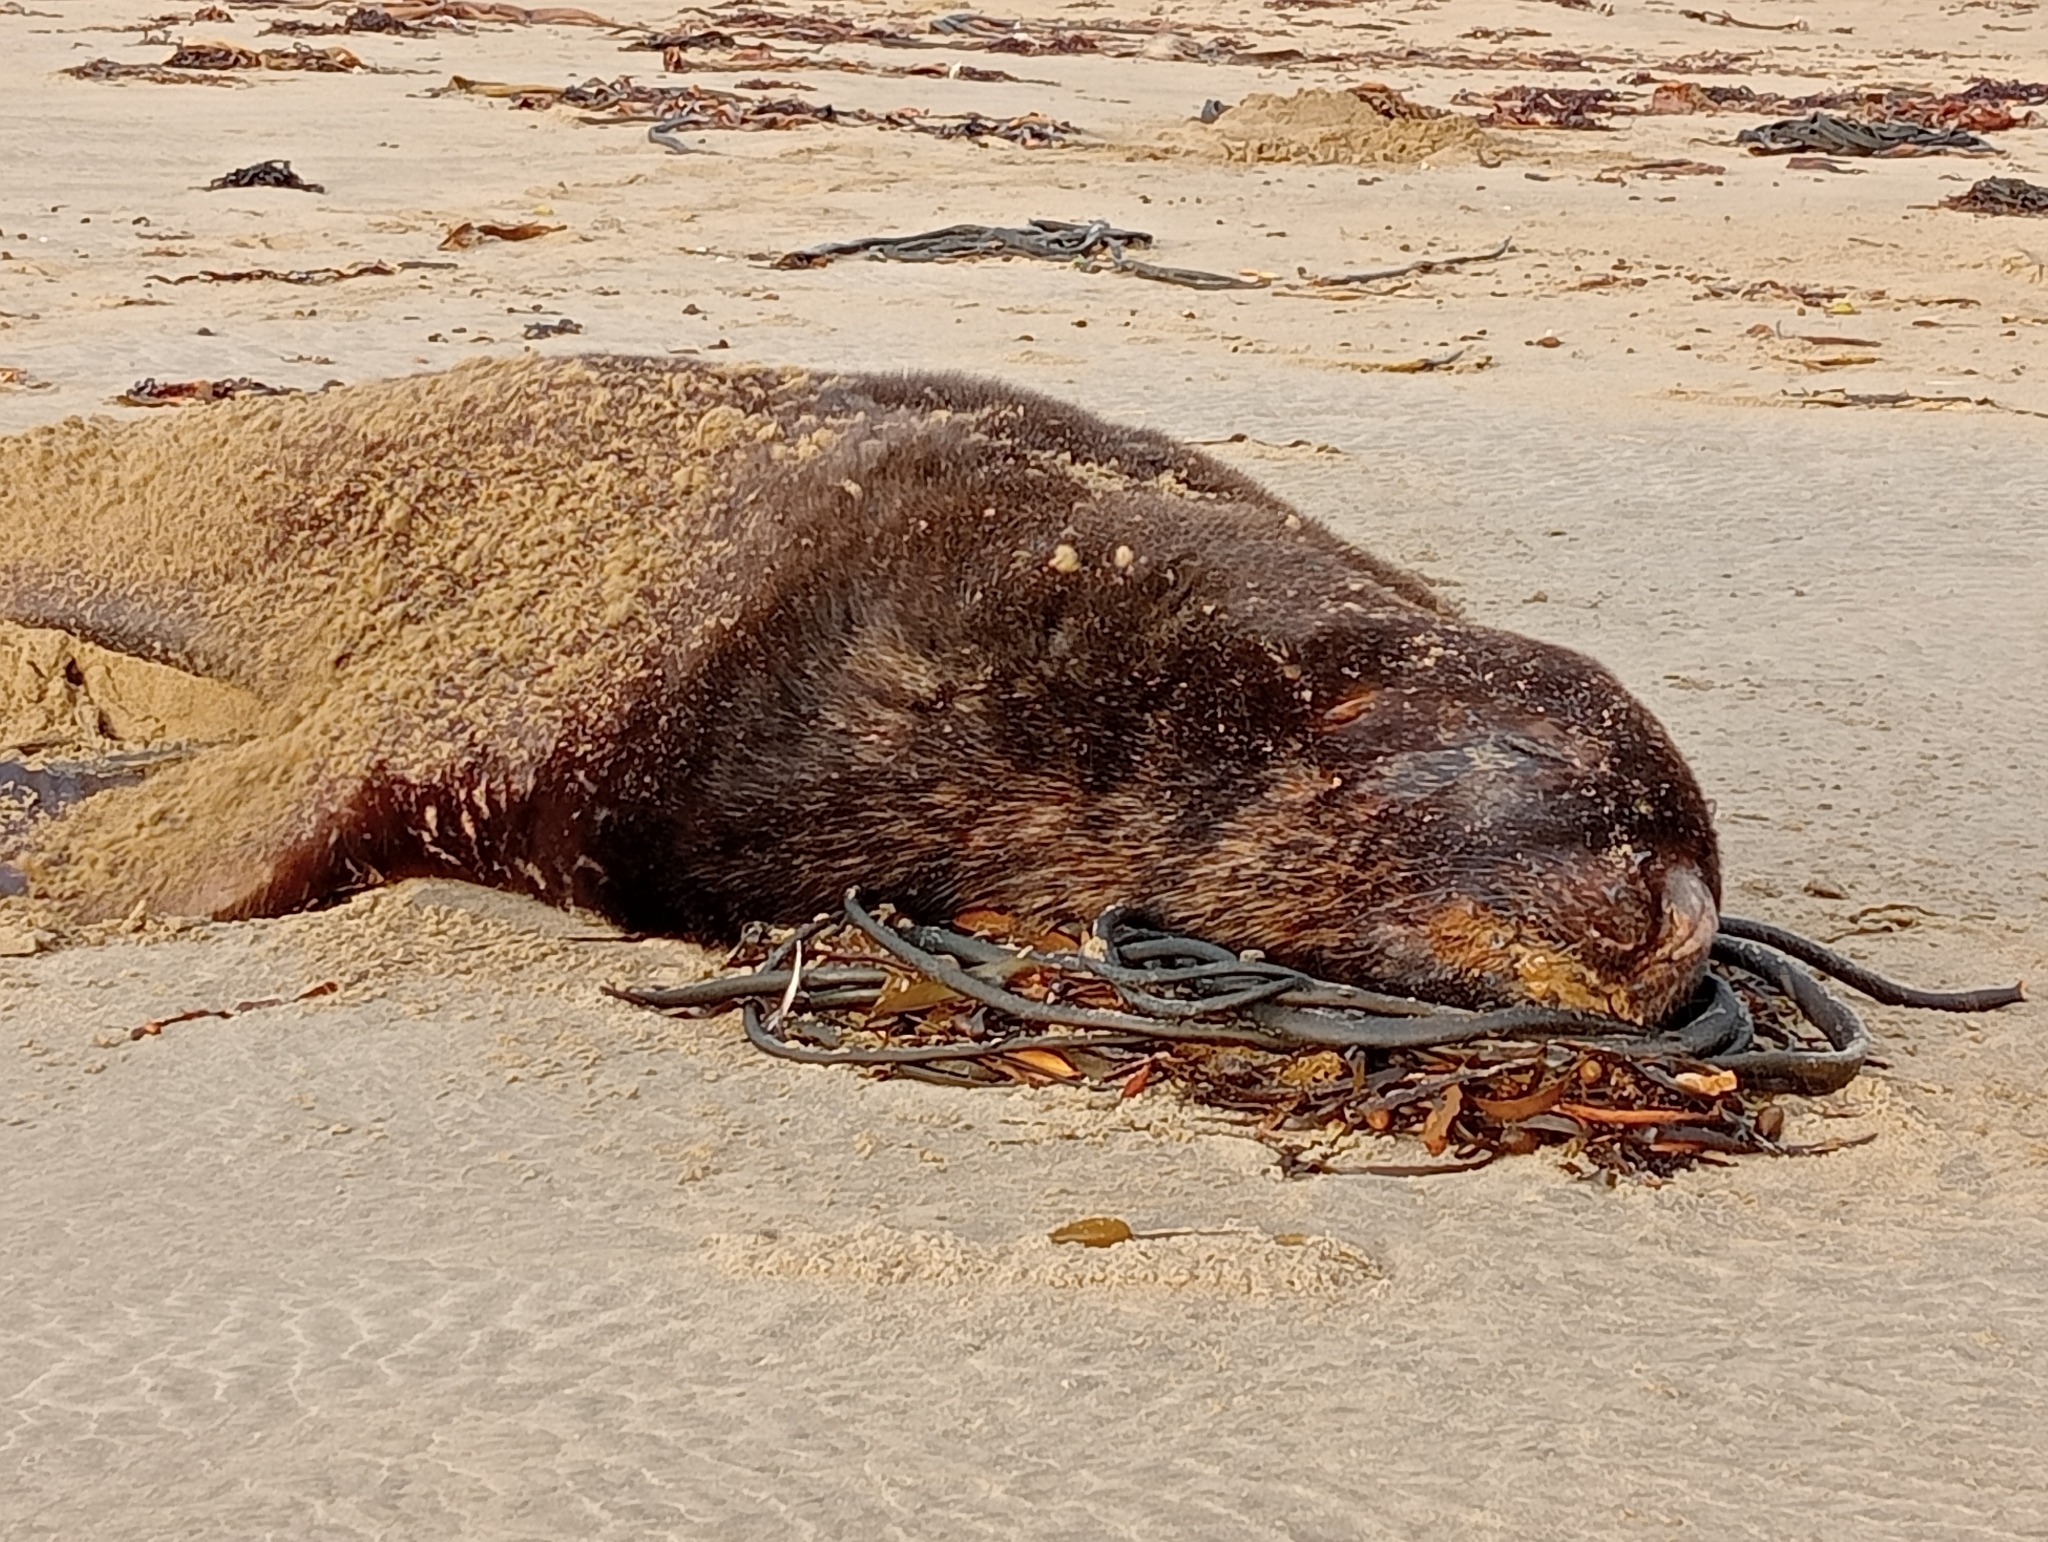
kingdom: Animalia
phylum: Chordata
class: Mammalia
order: Carnivora
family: Otariidae
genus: Phocarctos
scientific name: Phocarctos hookeri
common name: New zealand sea lion
